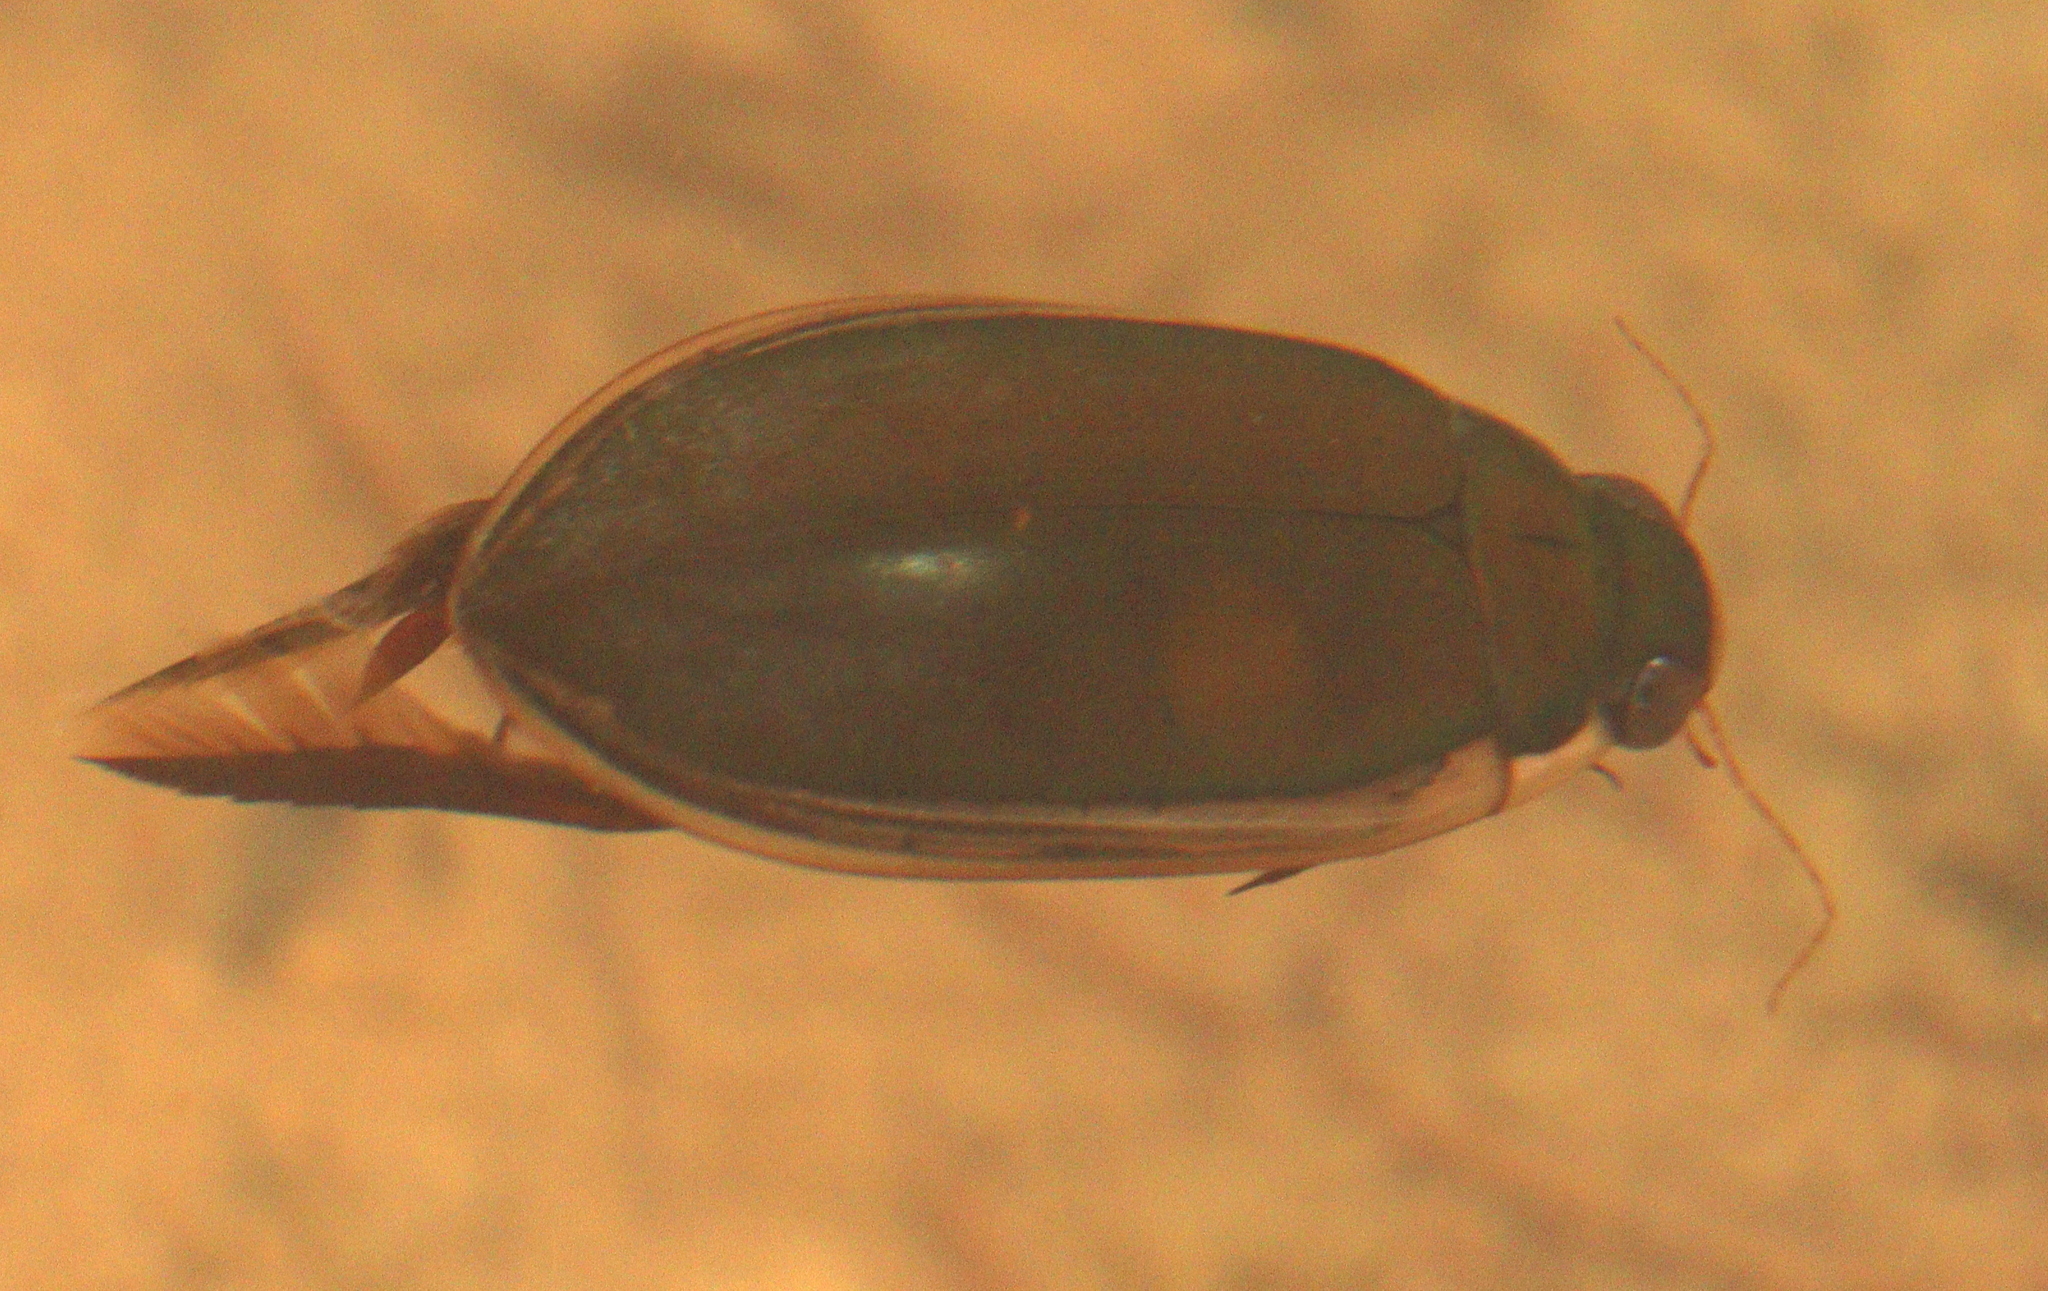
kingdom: Animalia
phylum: Arthropoda
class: Insecta
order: Coleoptera
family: Dytiscidae
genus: Cybister
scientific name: Cybister
